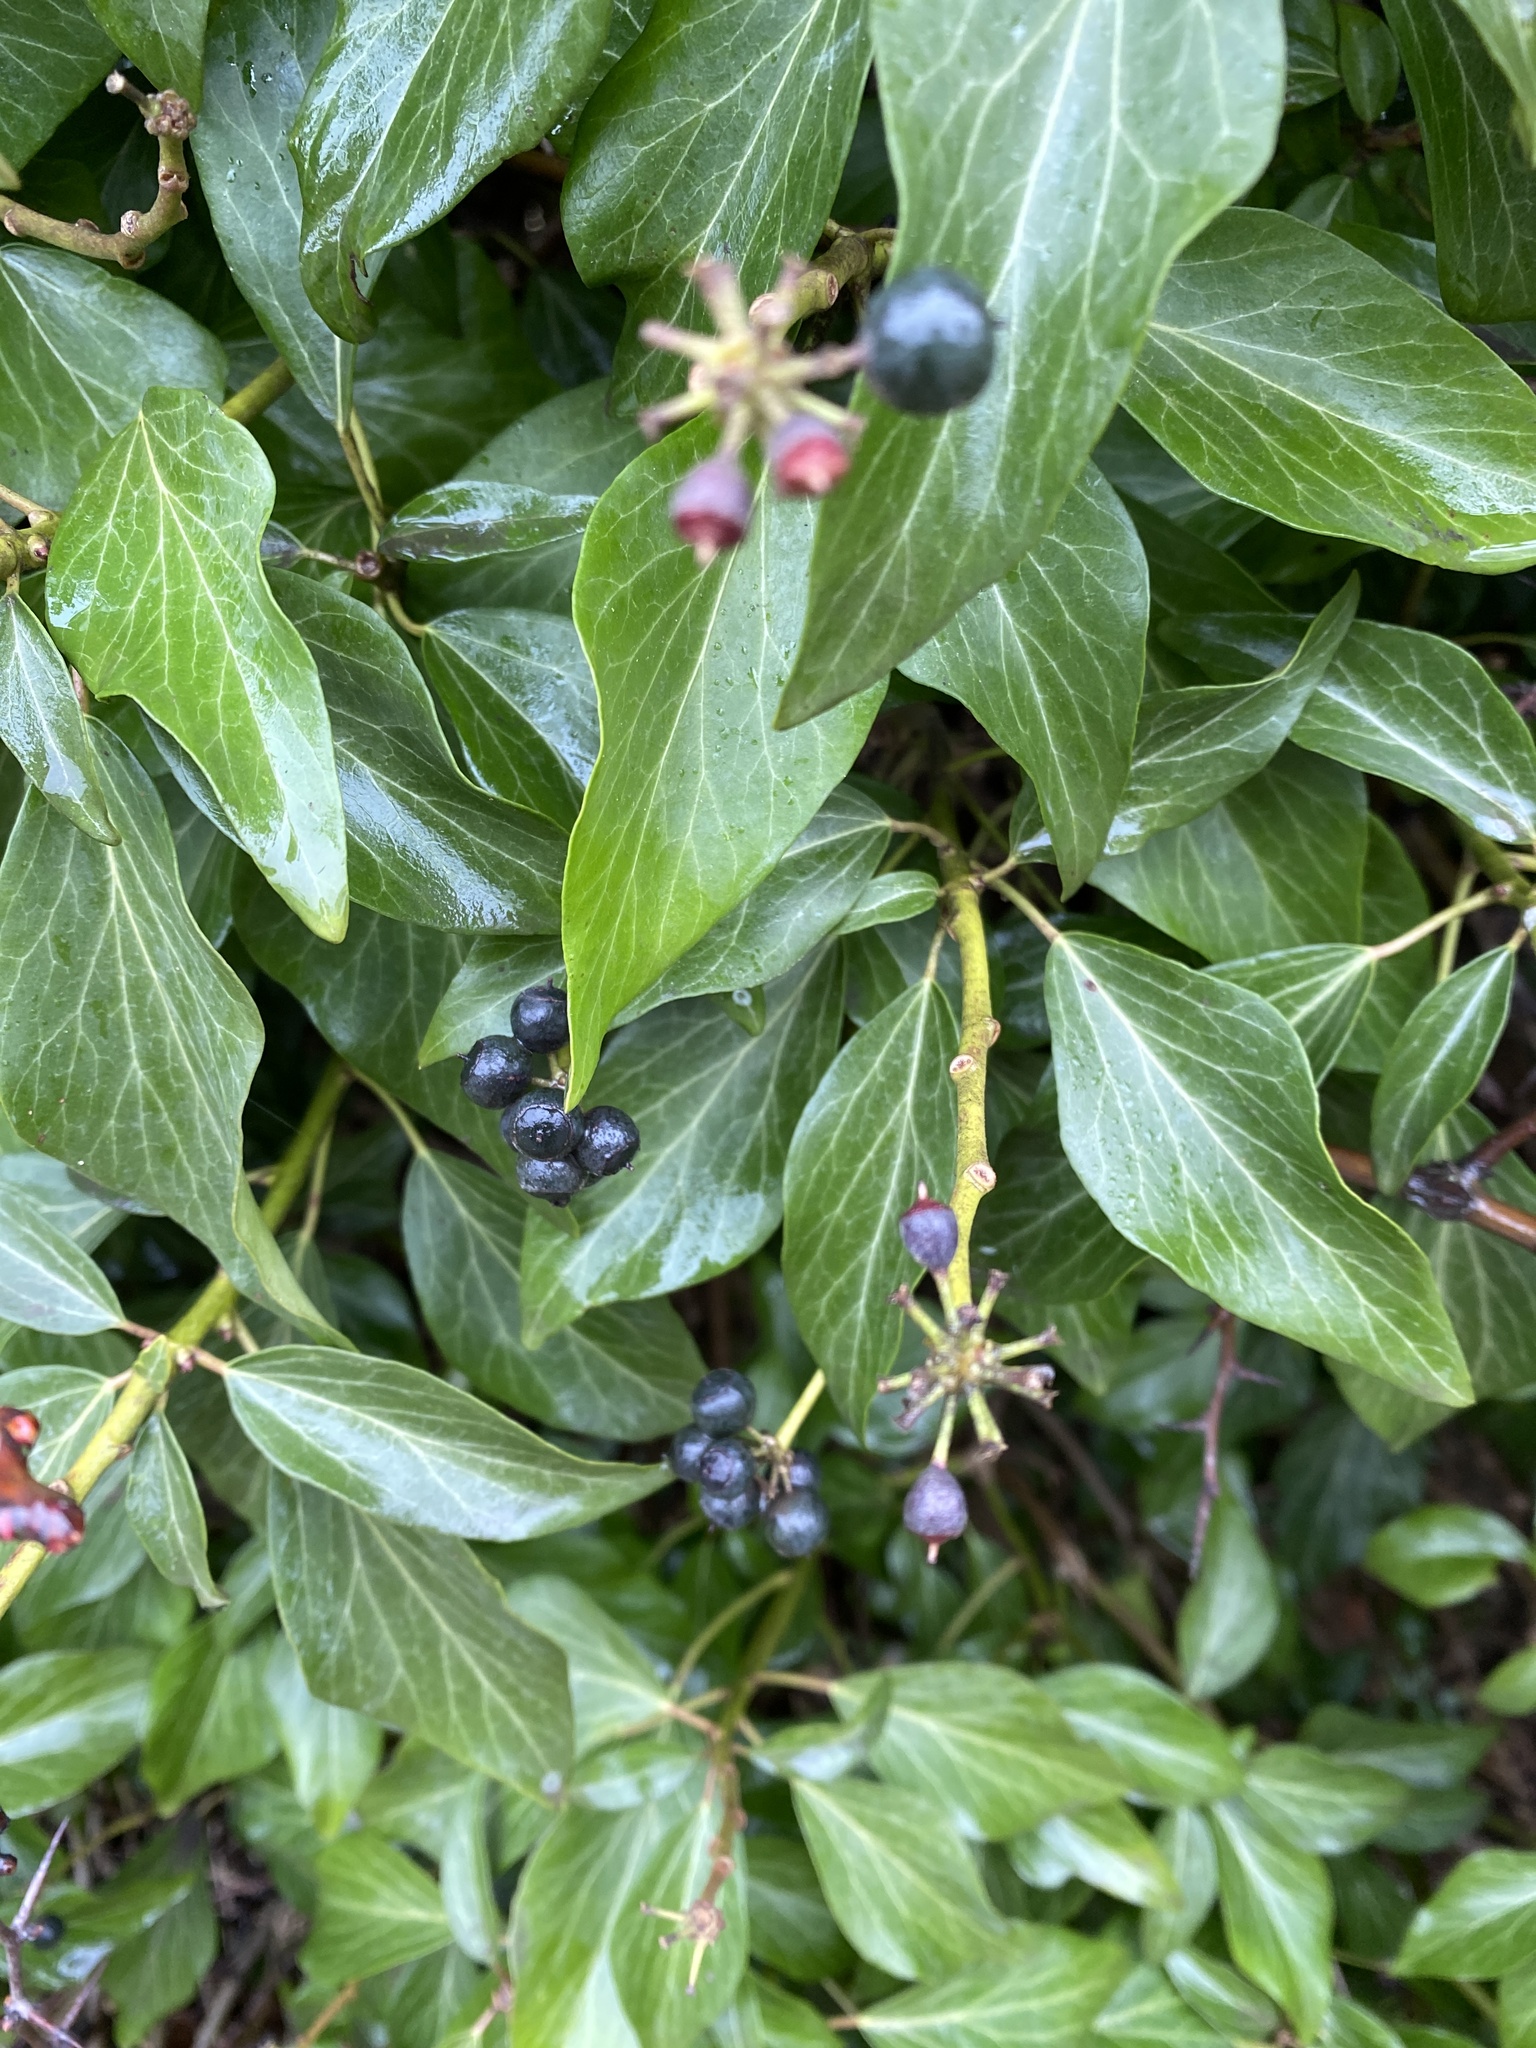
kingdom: Plantae
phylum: Tracheophyta
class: Magnoliopsida
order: Apiales
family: Araliaceae
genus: Hedera
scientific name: Hedera helix
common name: Ivy
